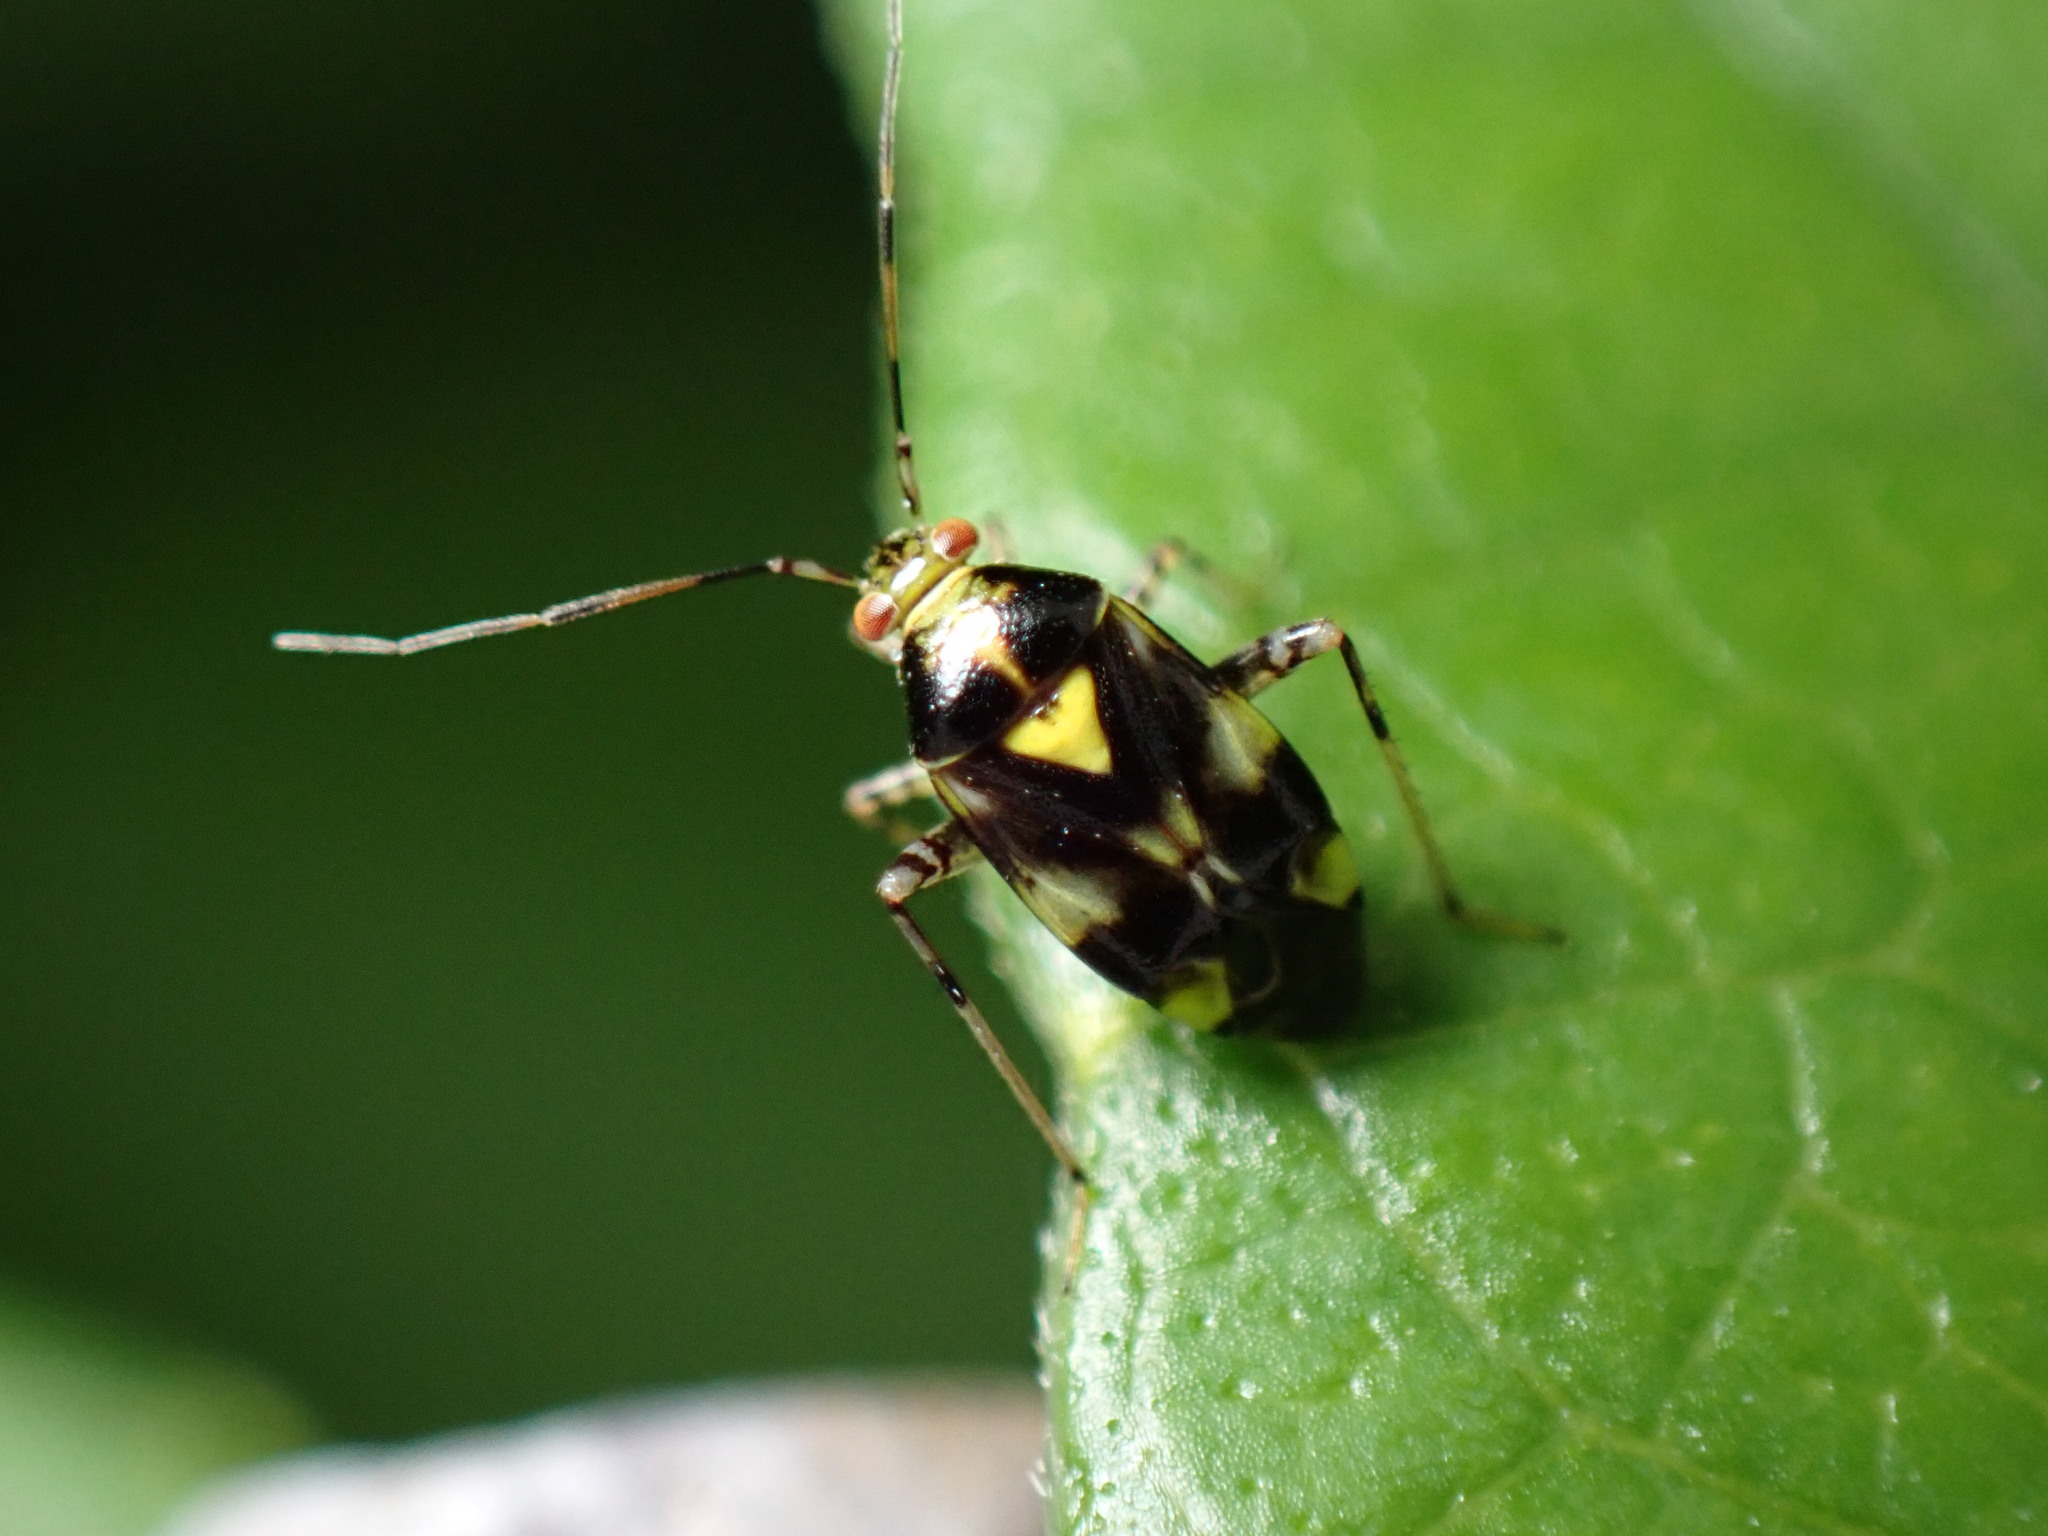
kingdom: Animalia
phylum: Arthropoda
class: Insecta
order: Hemiptera
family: Miridae
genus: Liocoris
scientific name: Liocoris tripustulatus
